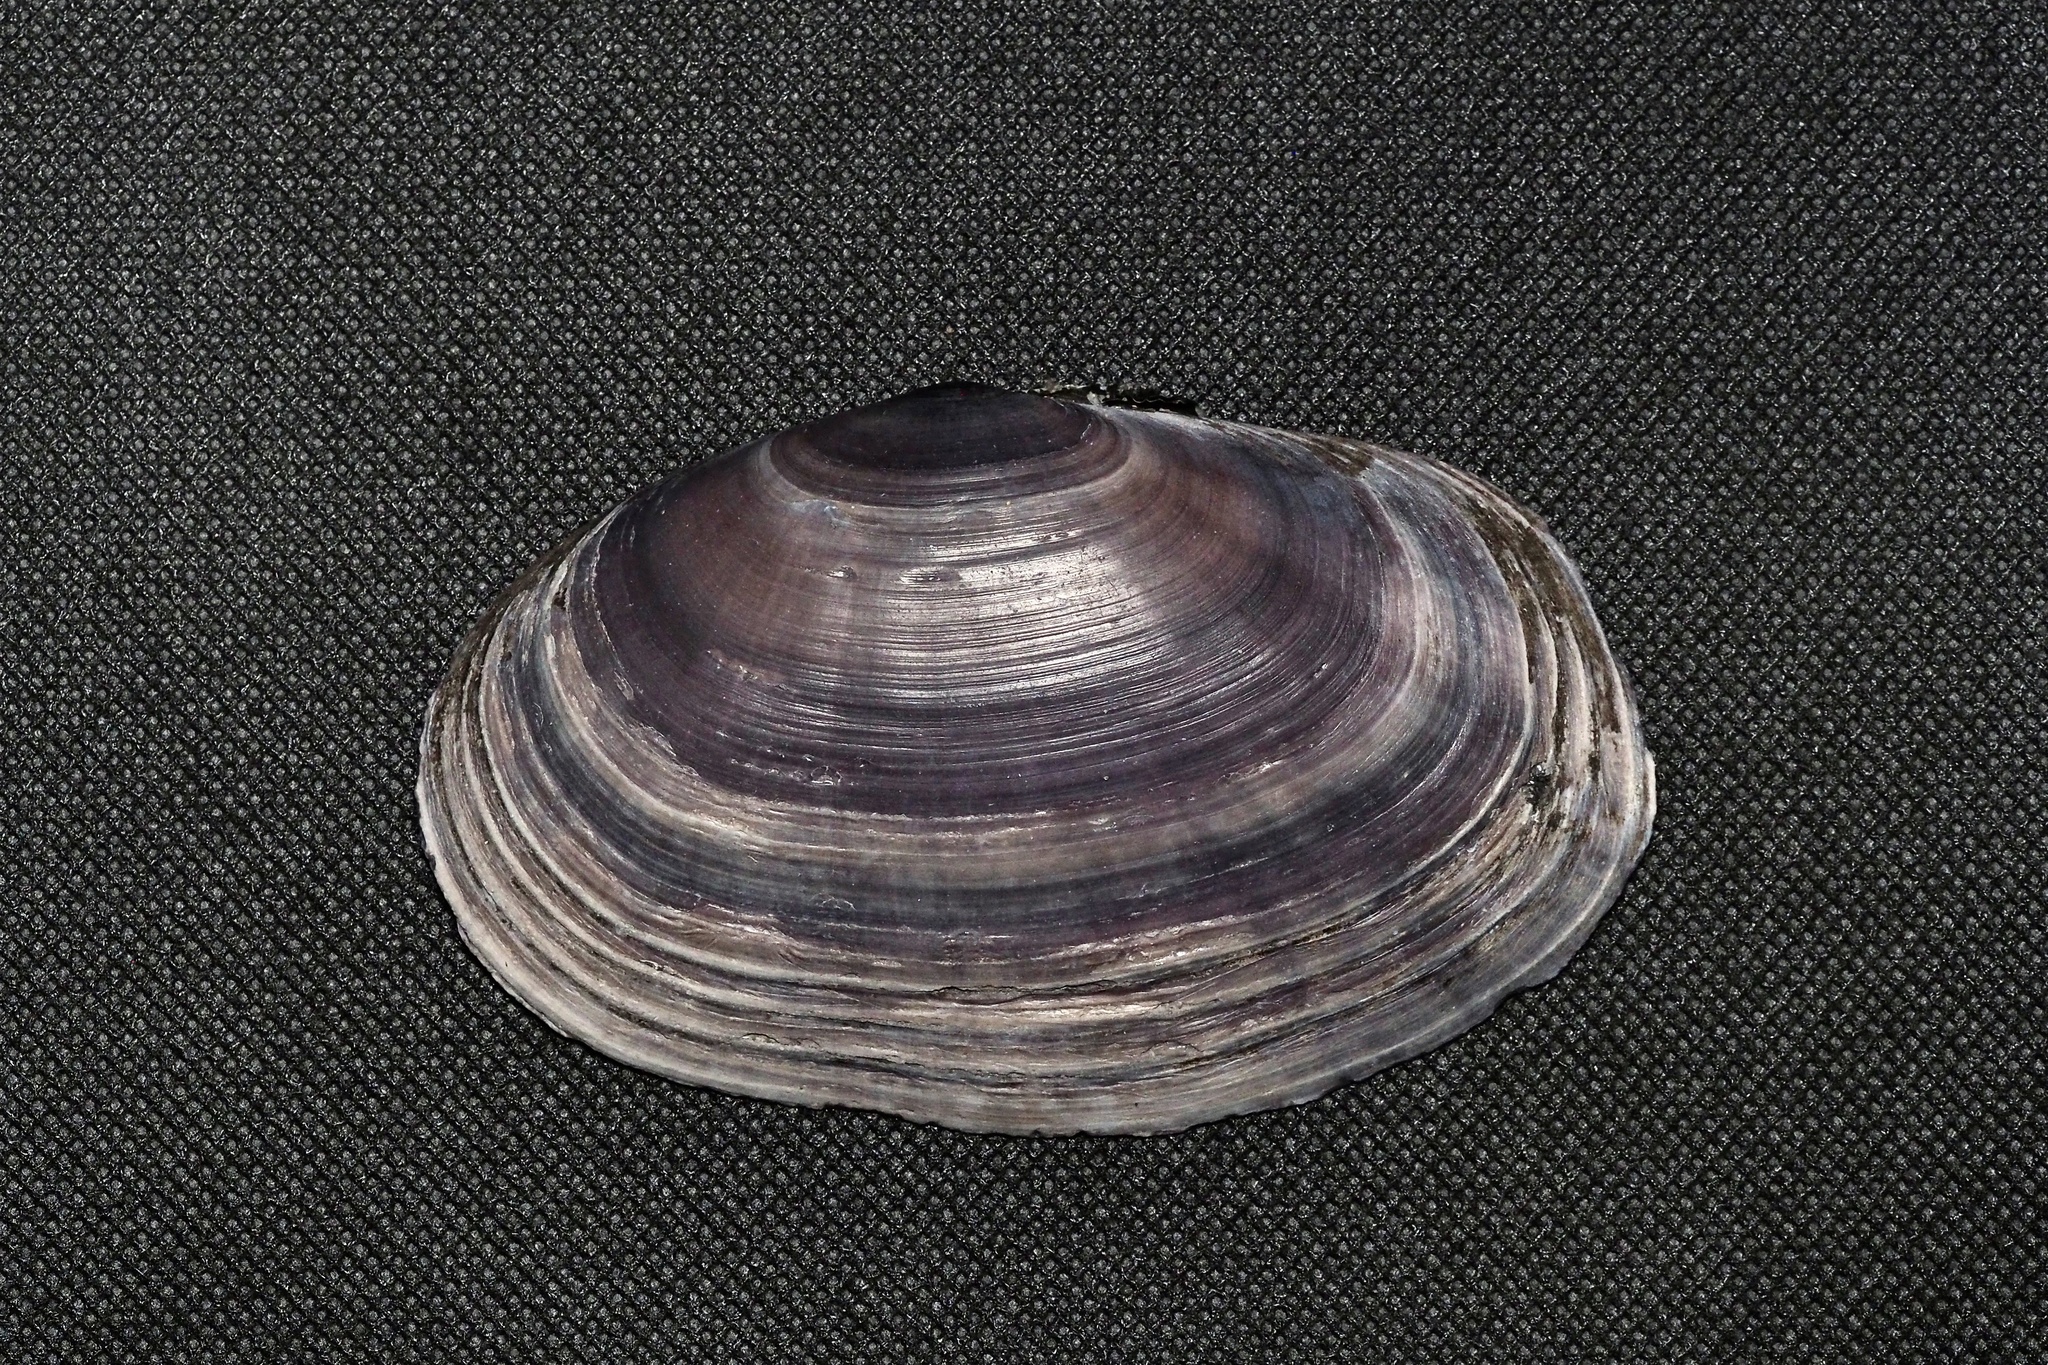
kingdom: Animalia
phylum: Mollusca
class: Bivalvia
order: Cardiida
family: Psammobiidae
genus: Hiatula
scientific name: Hiatula diphos
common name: Diphos sanguin
